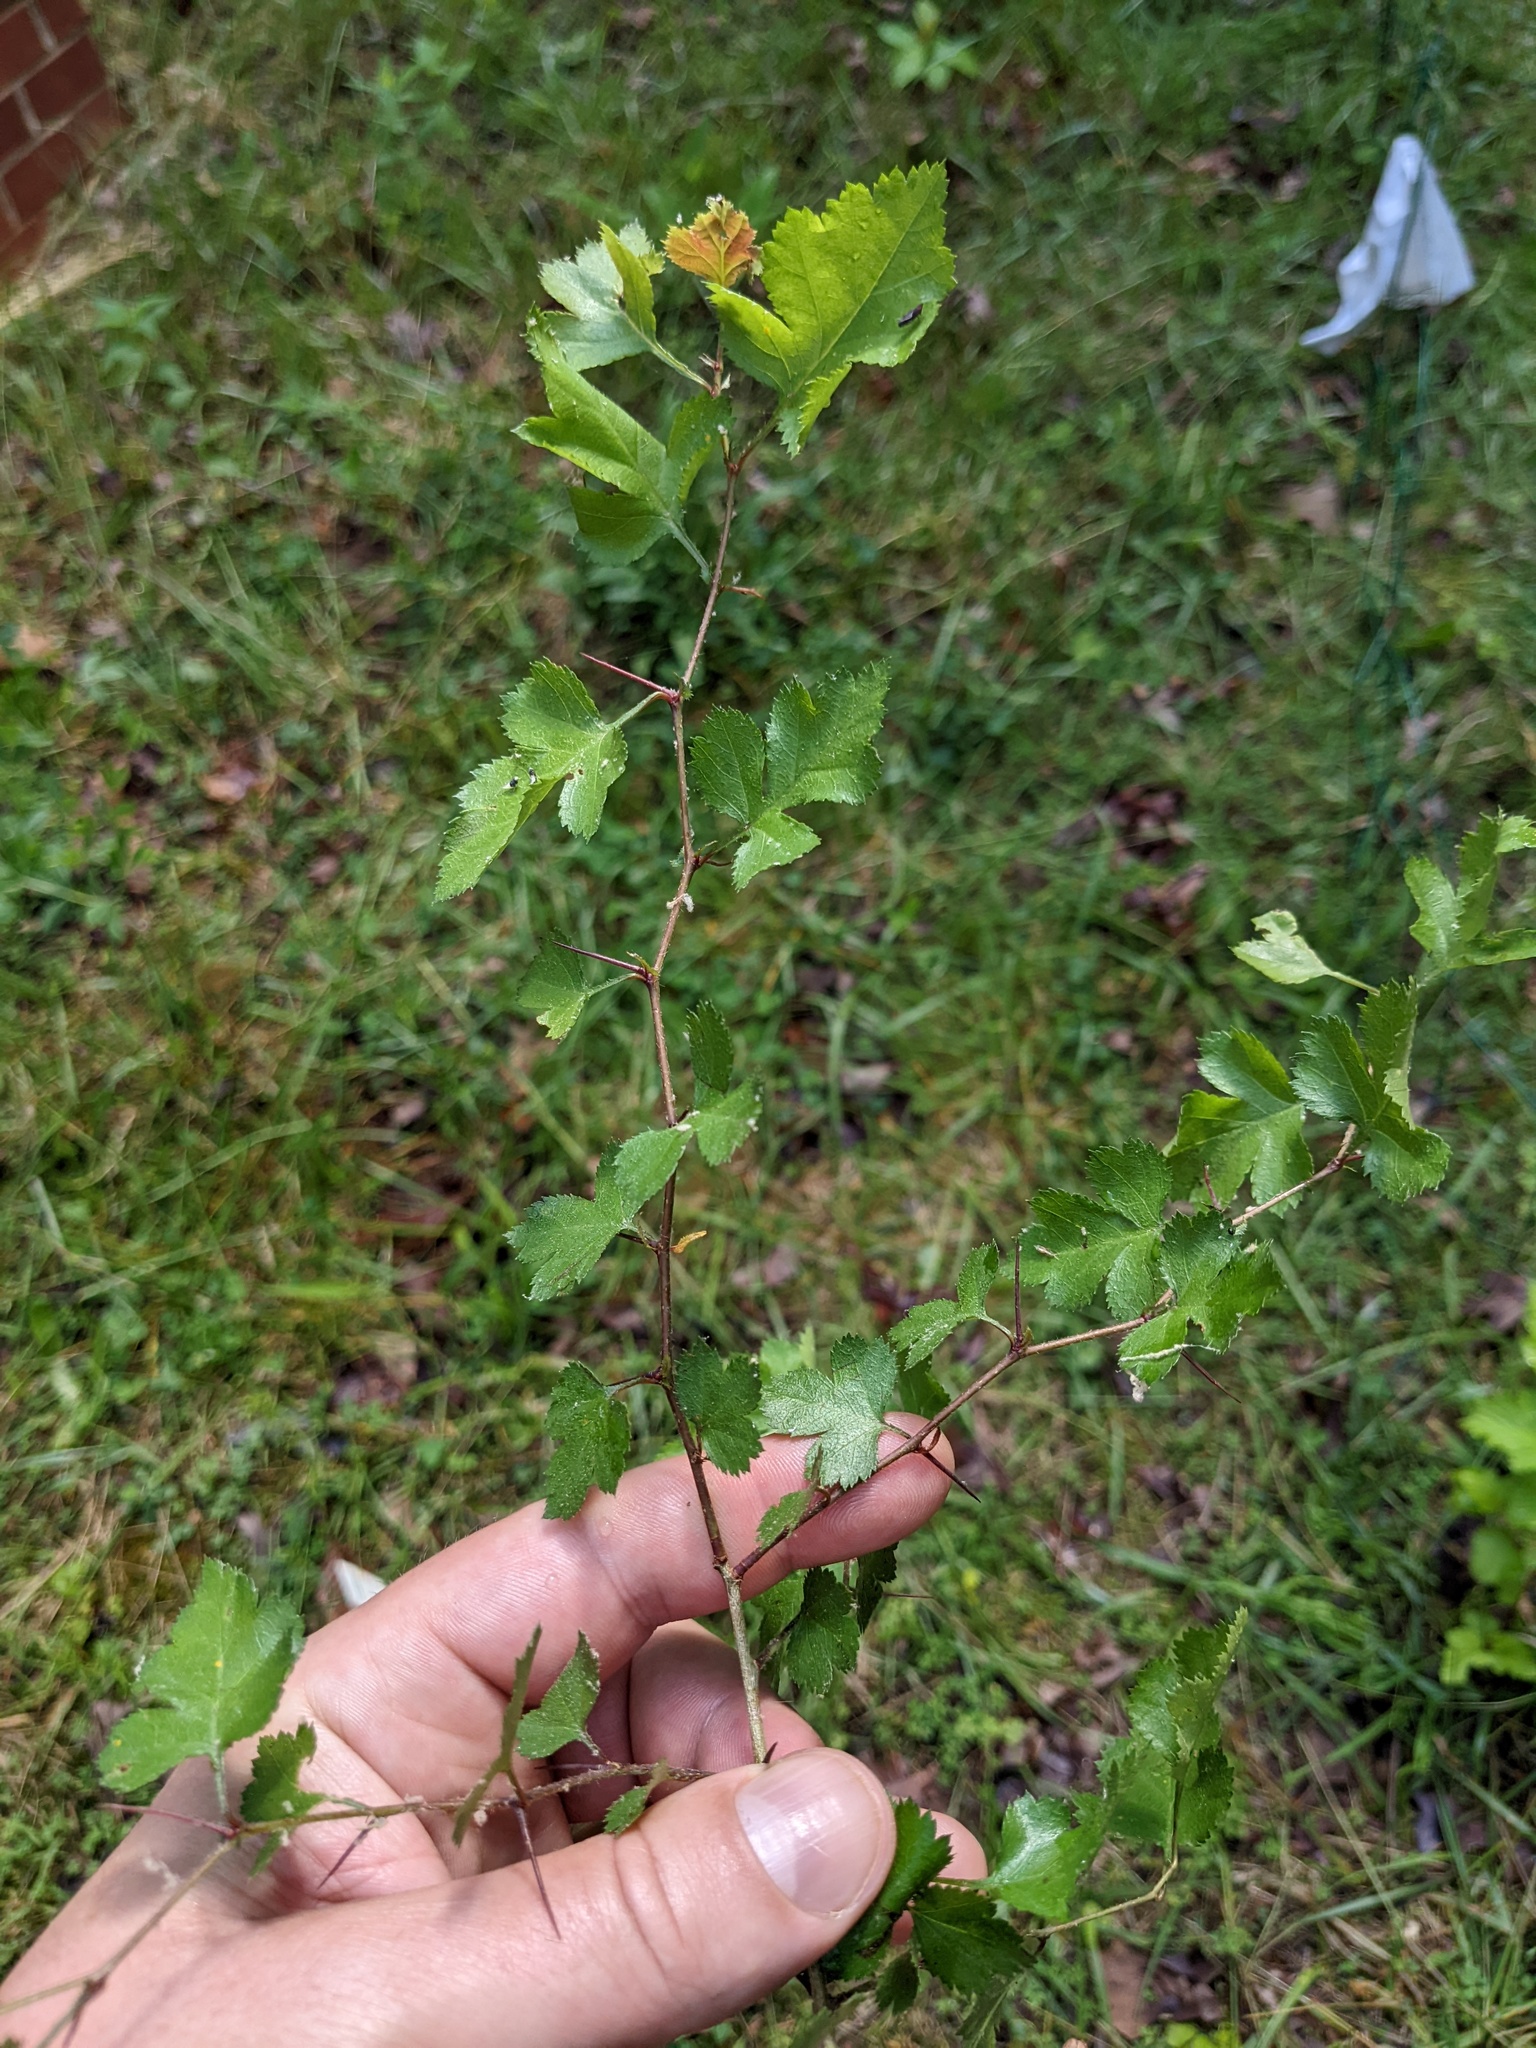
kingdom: Plantae
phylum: Tracheophyta
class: Magnoliopsida
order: Rosales
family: Rosaceae
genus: Crataegus
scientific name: Crataegus marshallii
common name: Parsley-hawthorn
